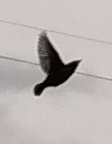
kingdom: Animalia
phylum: Chordata
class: Aves
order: Passeriformes
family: Bombycillidae
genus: Bombycilla
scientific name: Bombycilla garrulus
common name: Bohemian waxwing
